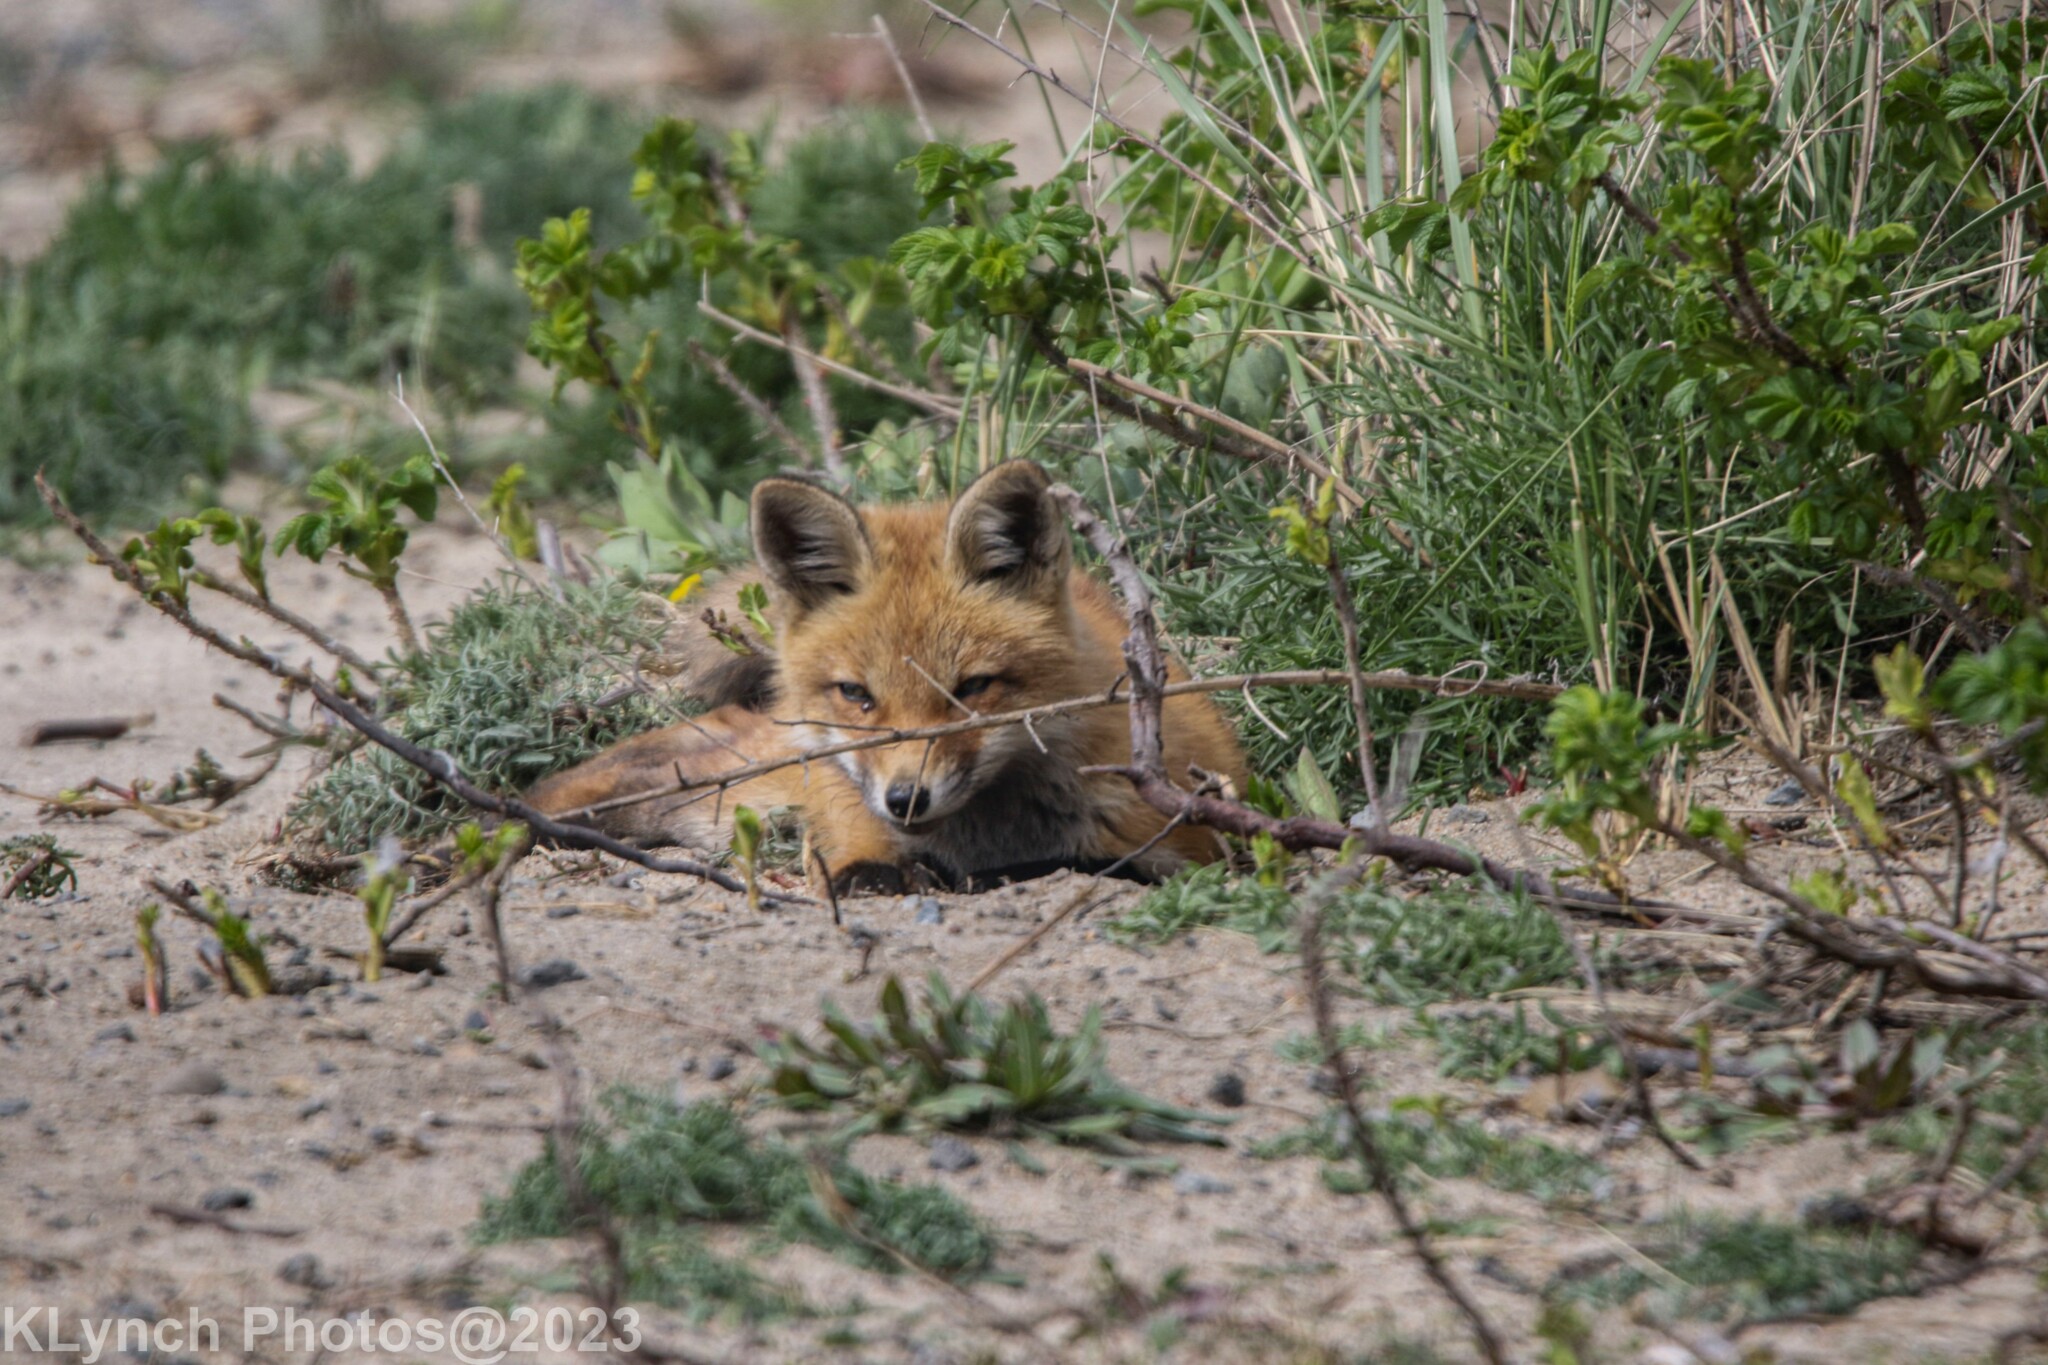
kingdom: Animalia
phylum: Chordata
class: Mammalia
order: Carnivora
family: Canidae
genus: Vulpes
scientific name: Vulpes vulpes
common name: Red fox
